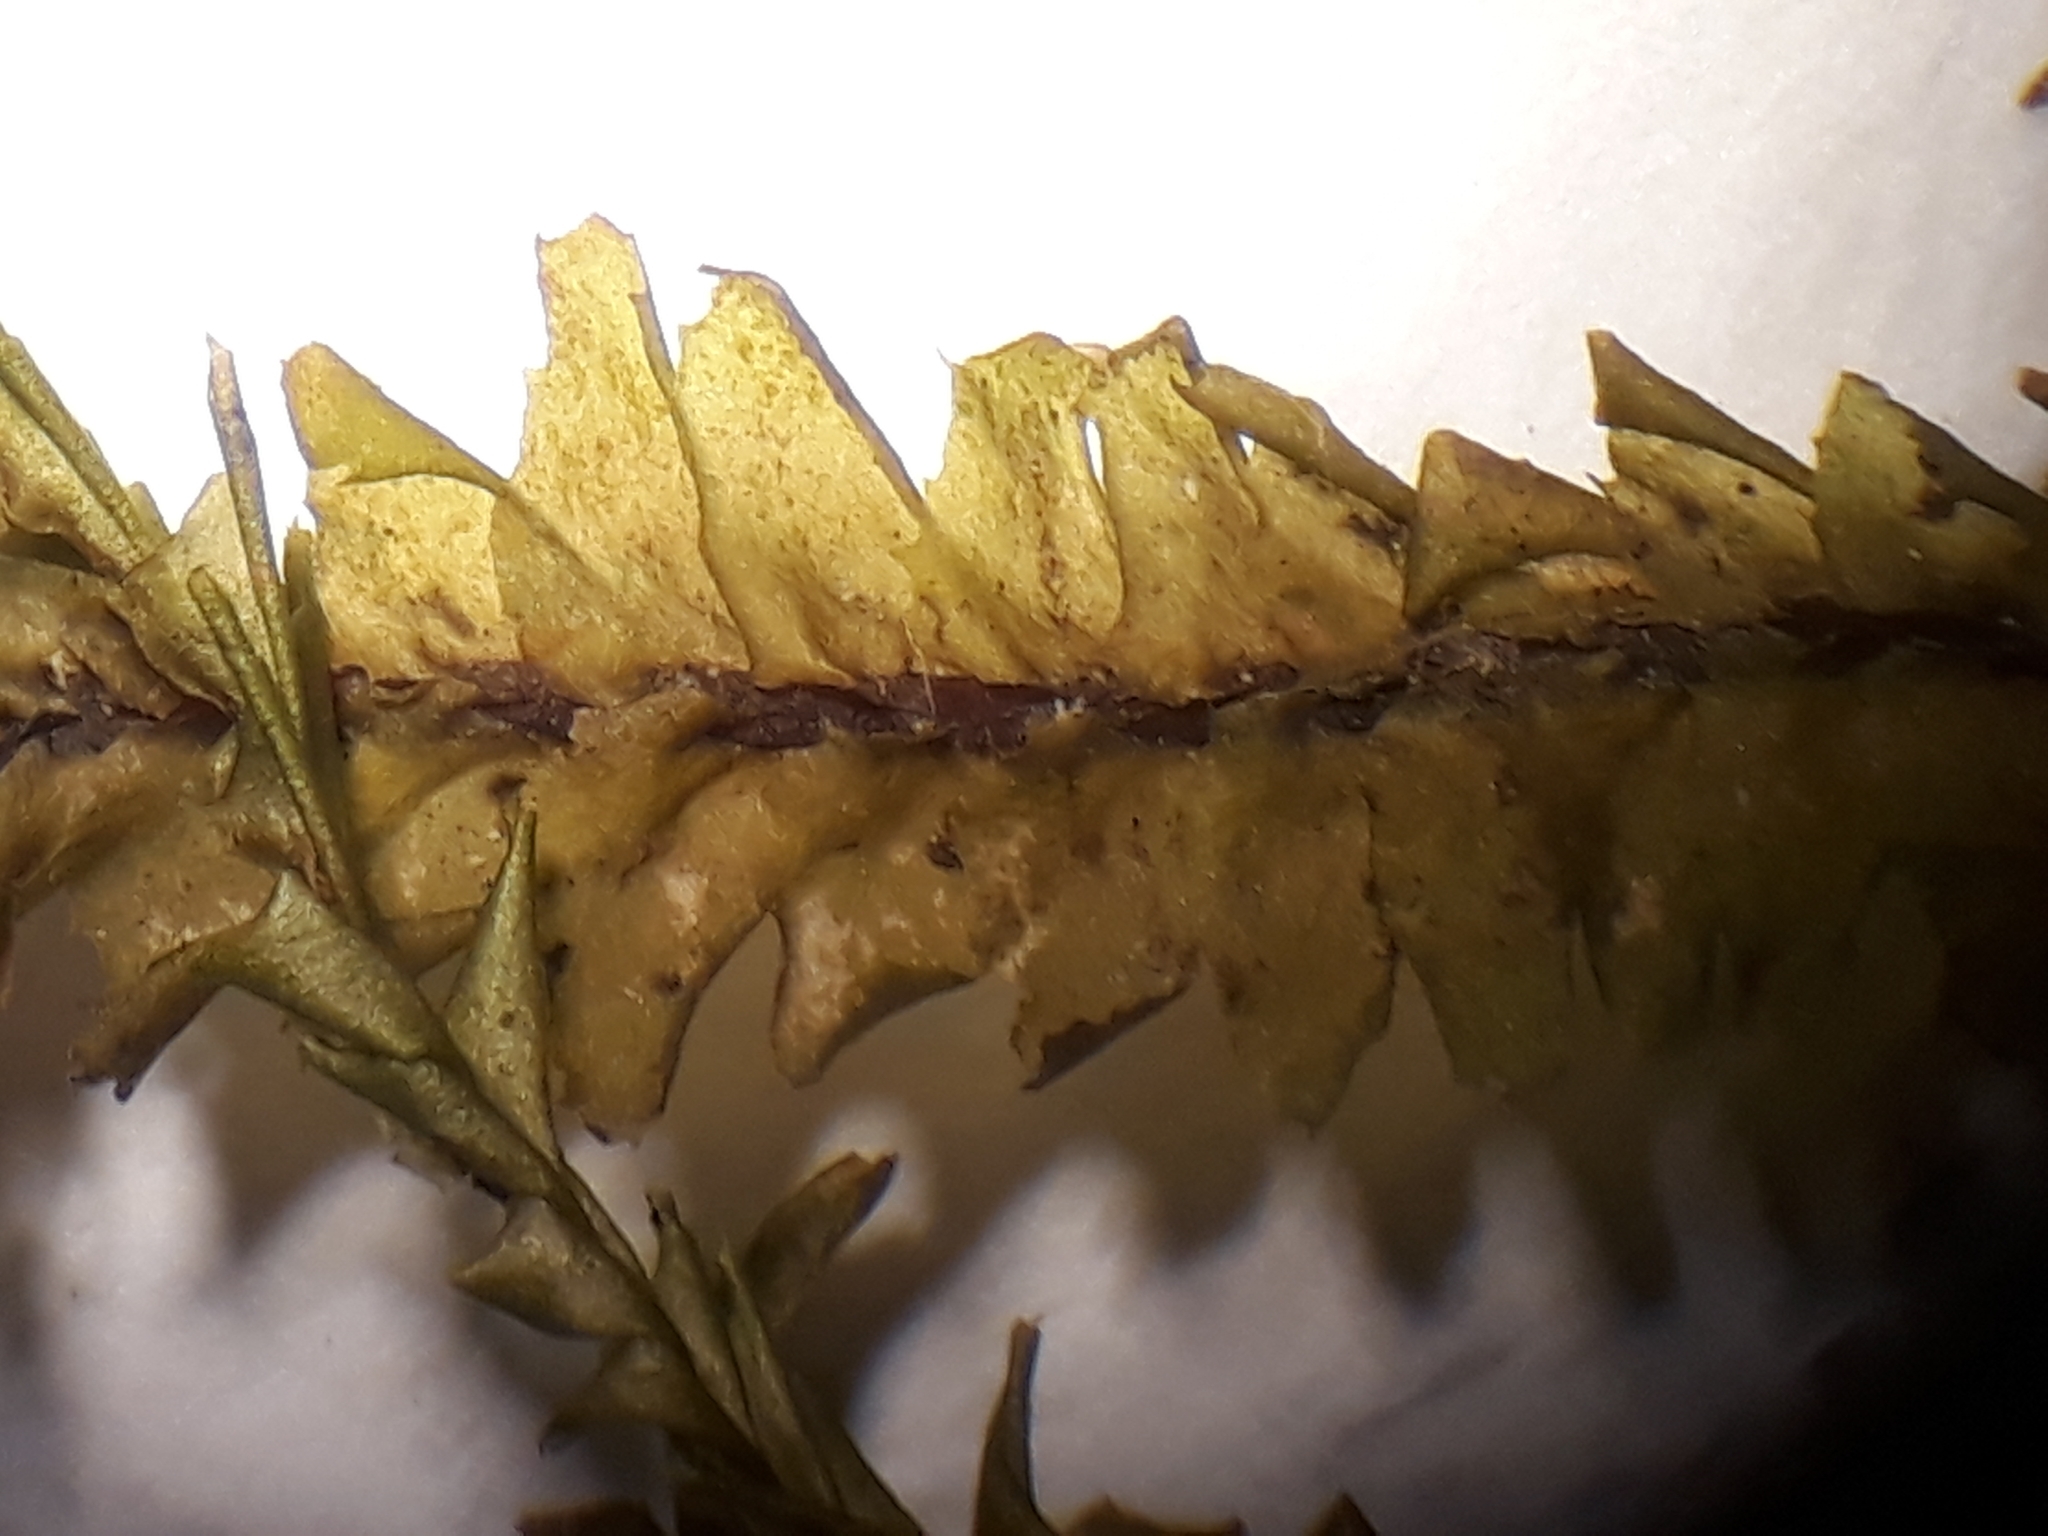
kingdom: Plantae
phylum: Marchantiophyta
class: Jungermanniopsida
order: Jungermanniales
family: Plagiochilaceae
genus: Plagiochila
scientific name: Plagiochila trispicata
